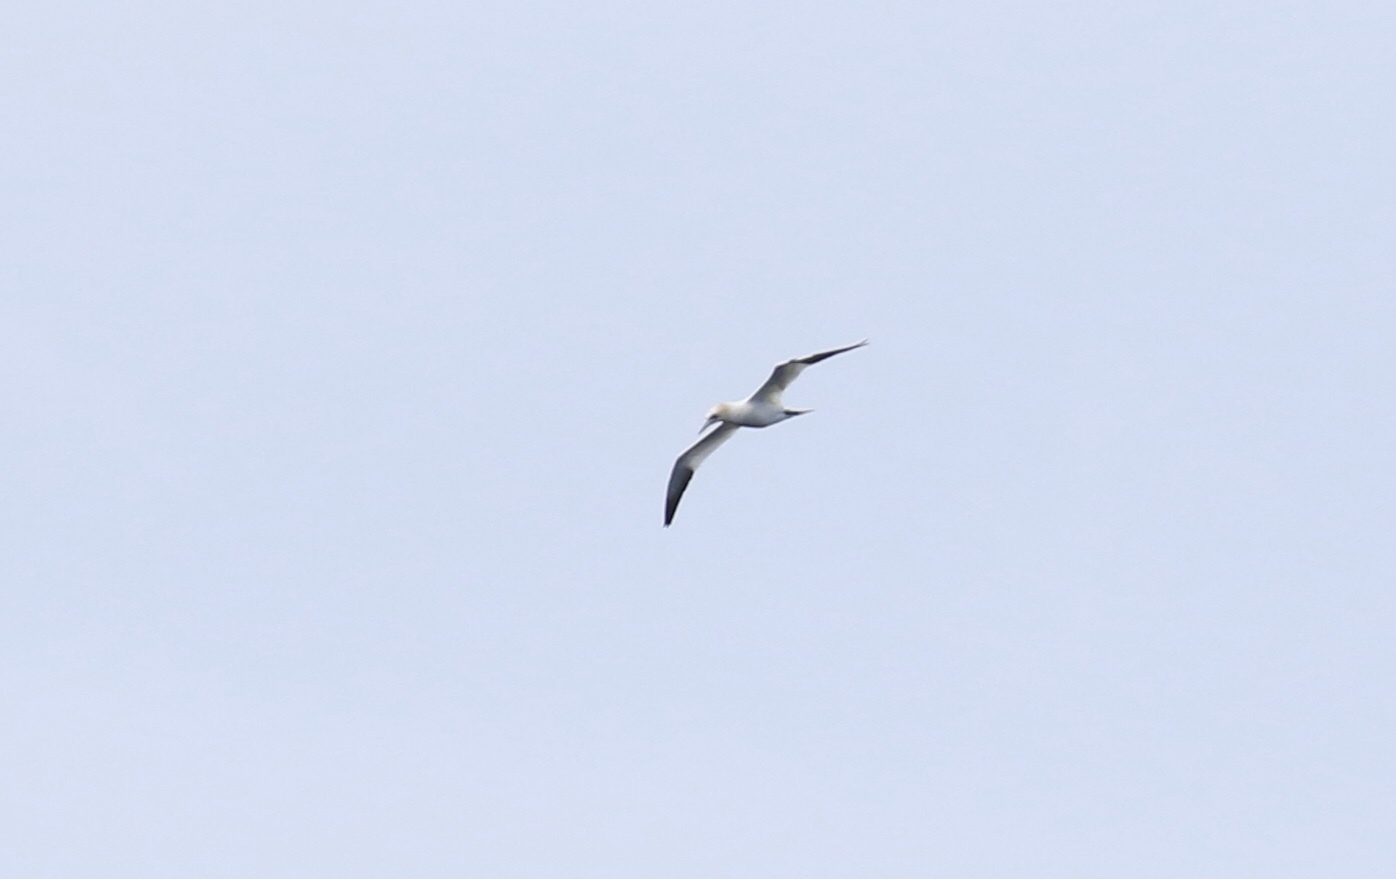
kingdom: Animalia
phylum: Chordata
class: Aves
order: Suliformes
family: Sulidae
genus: Morus
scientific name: Morus bassanus
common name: Northern gannet
